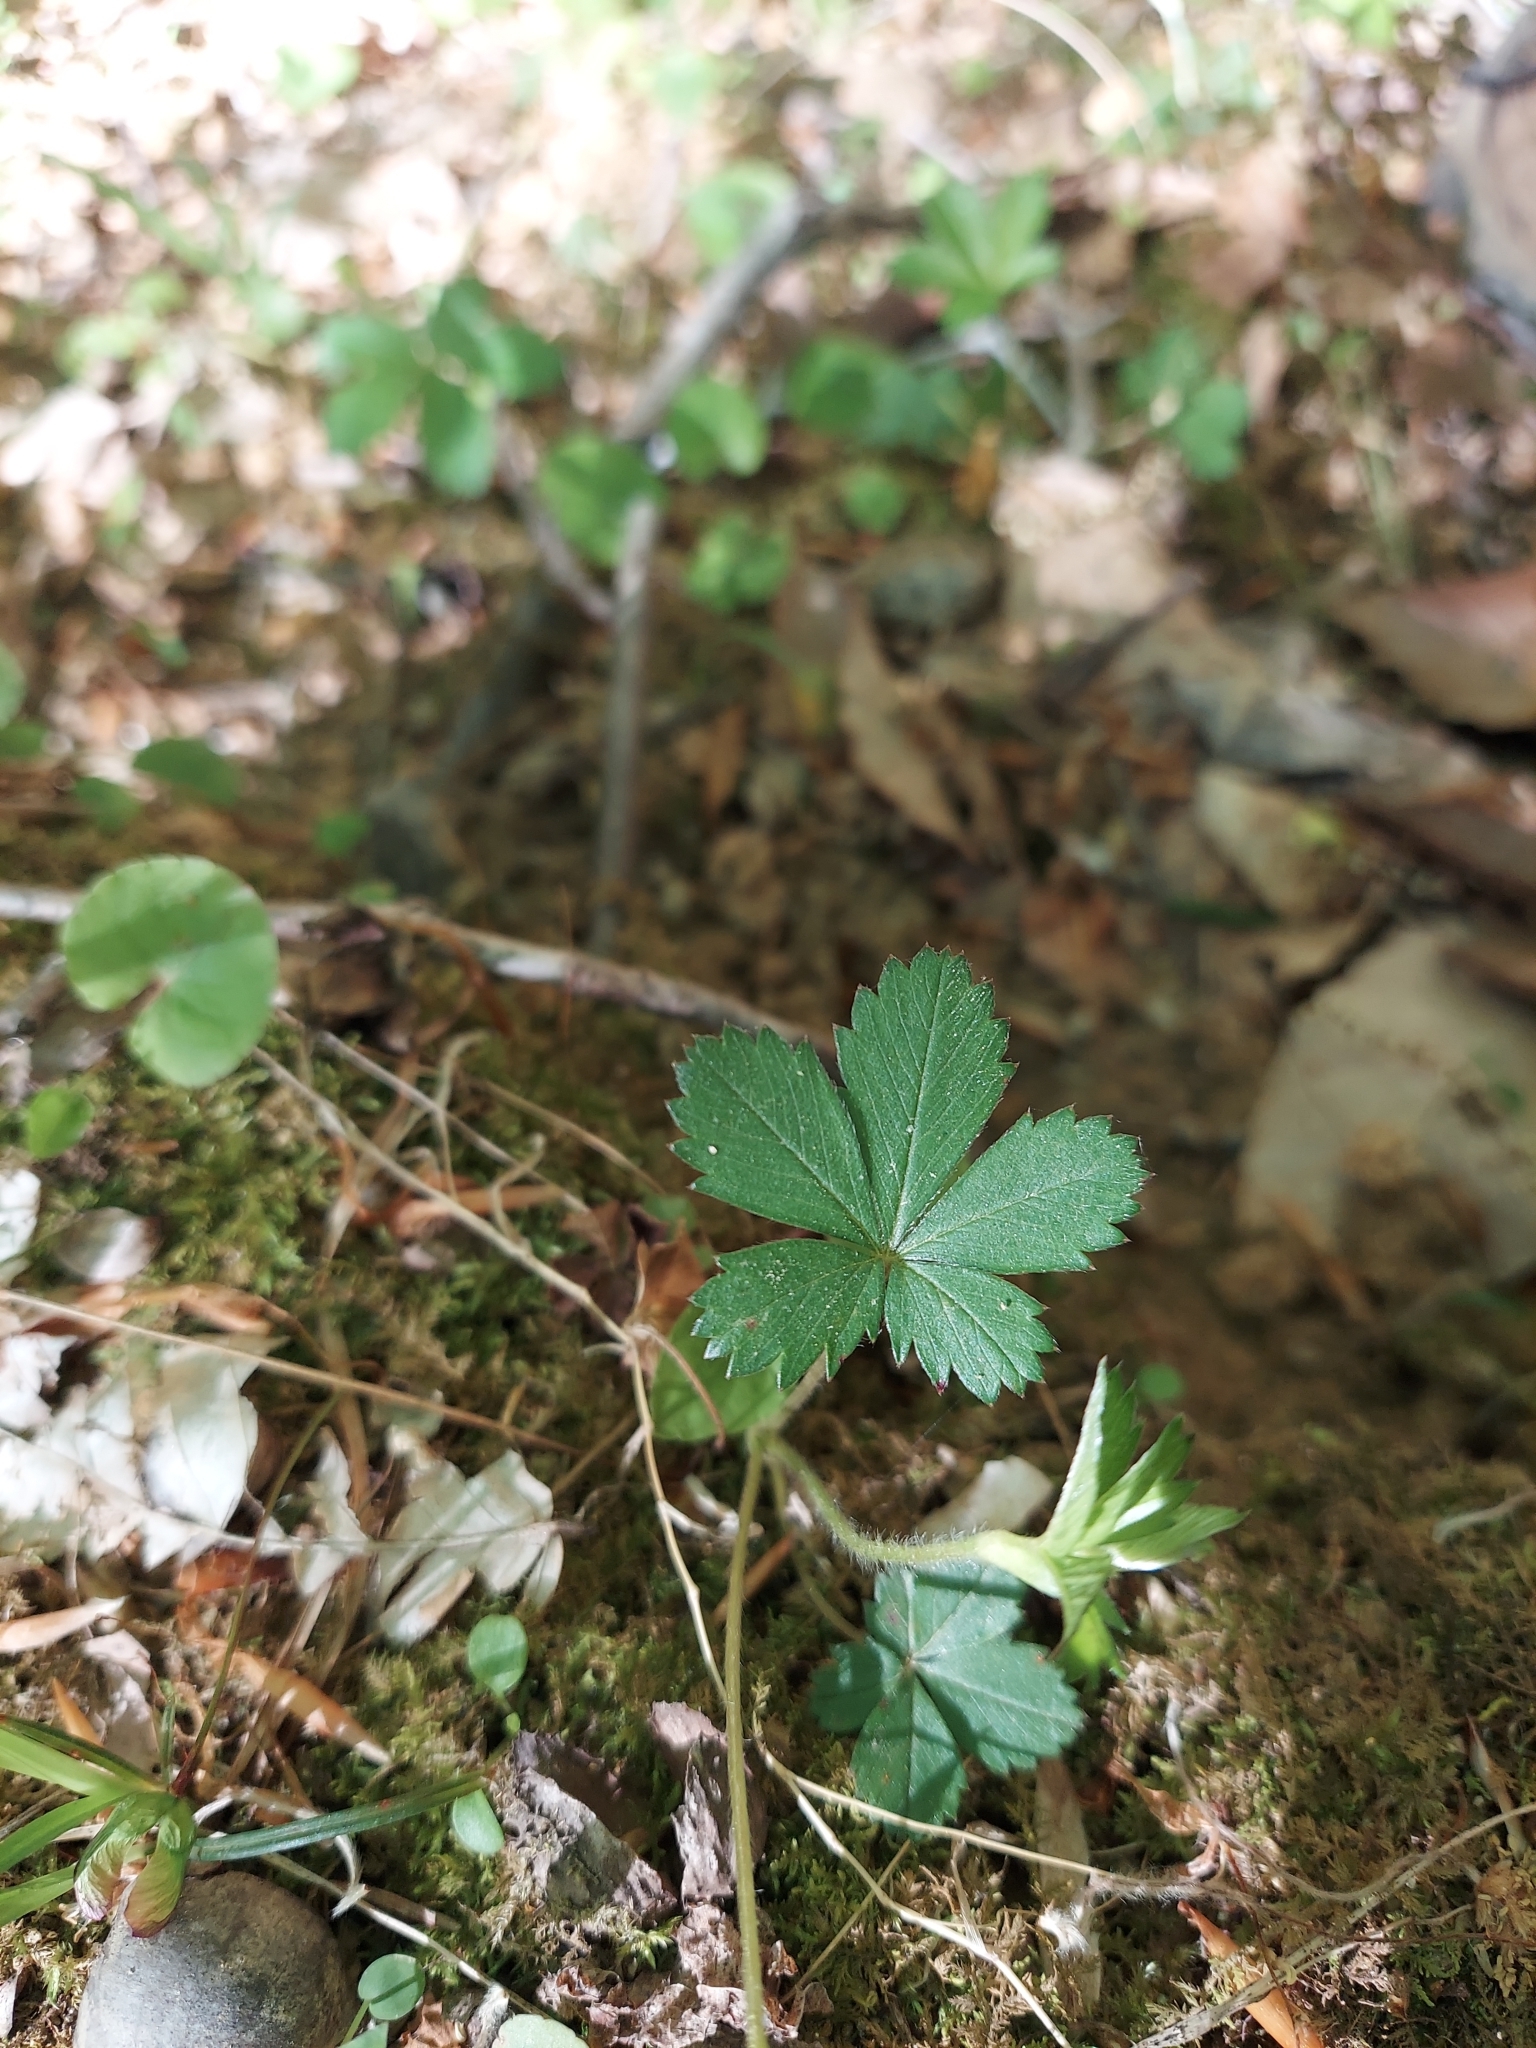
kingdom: Plantae
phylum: Tracheophyta
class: Magnoliopsida
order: Rosales
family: Rosaceae
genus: Potentilla
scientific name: Potentilla canadensis
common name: Canada cinquefoil
